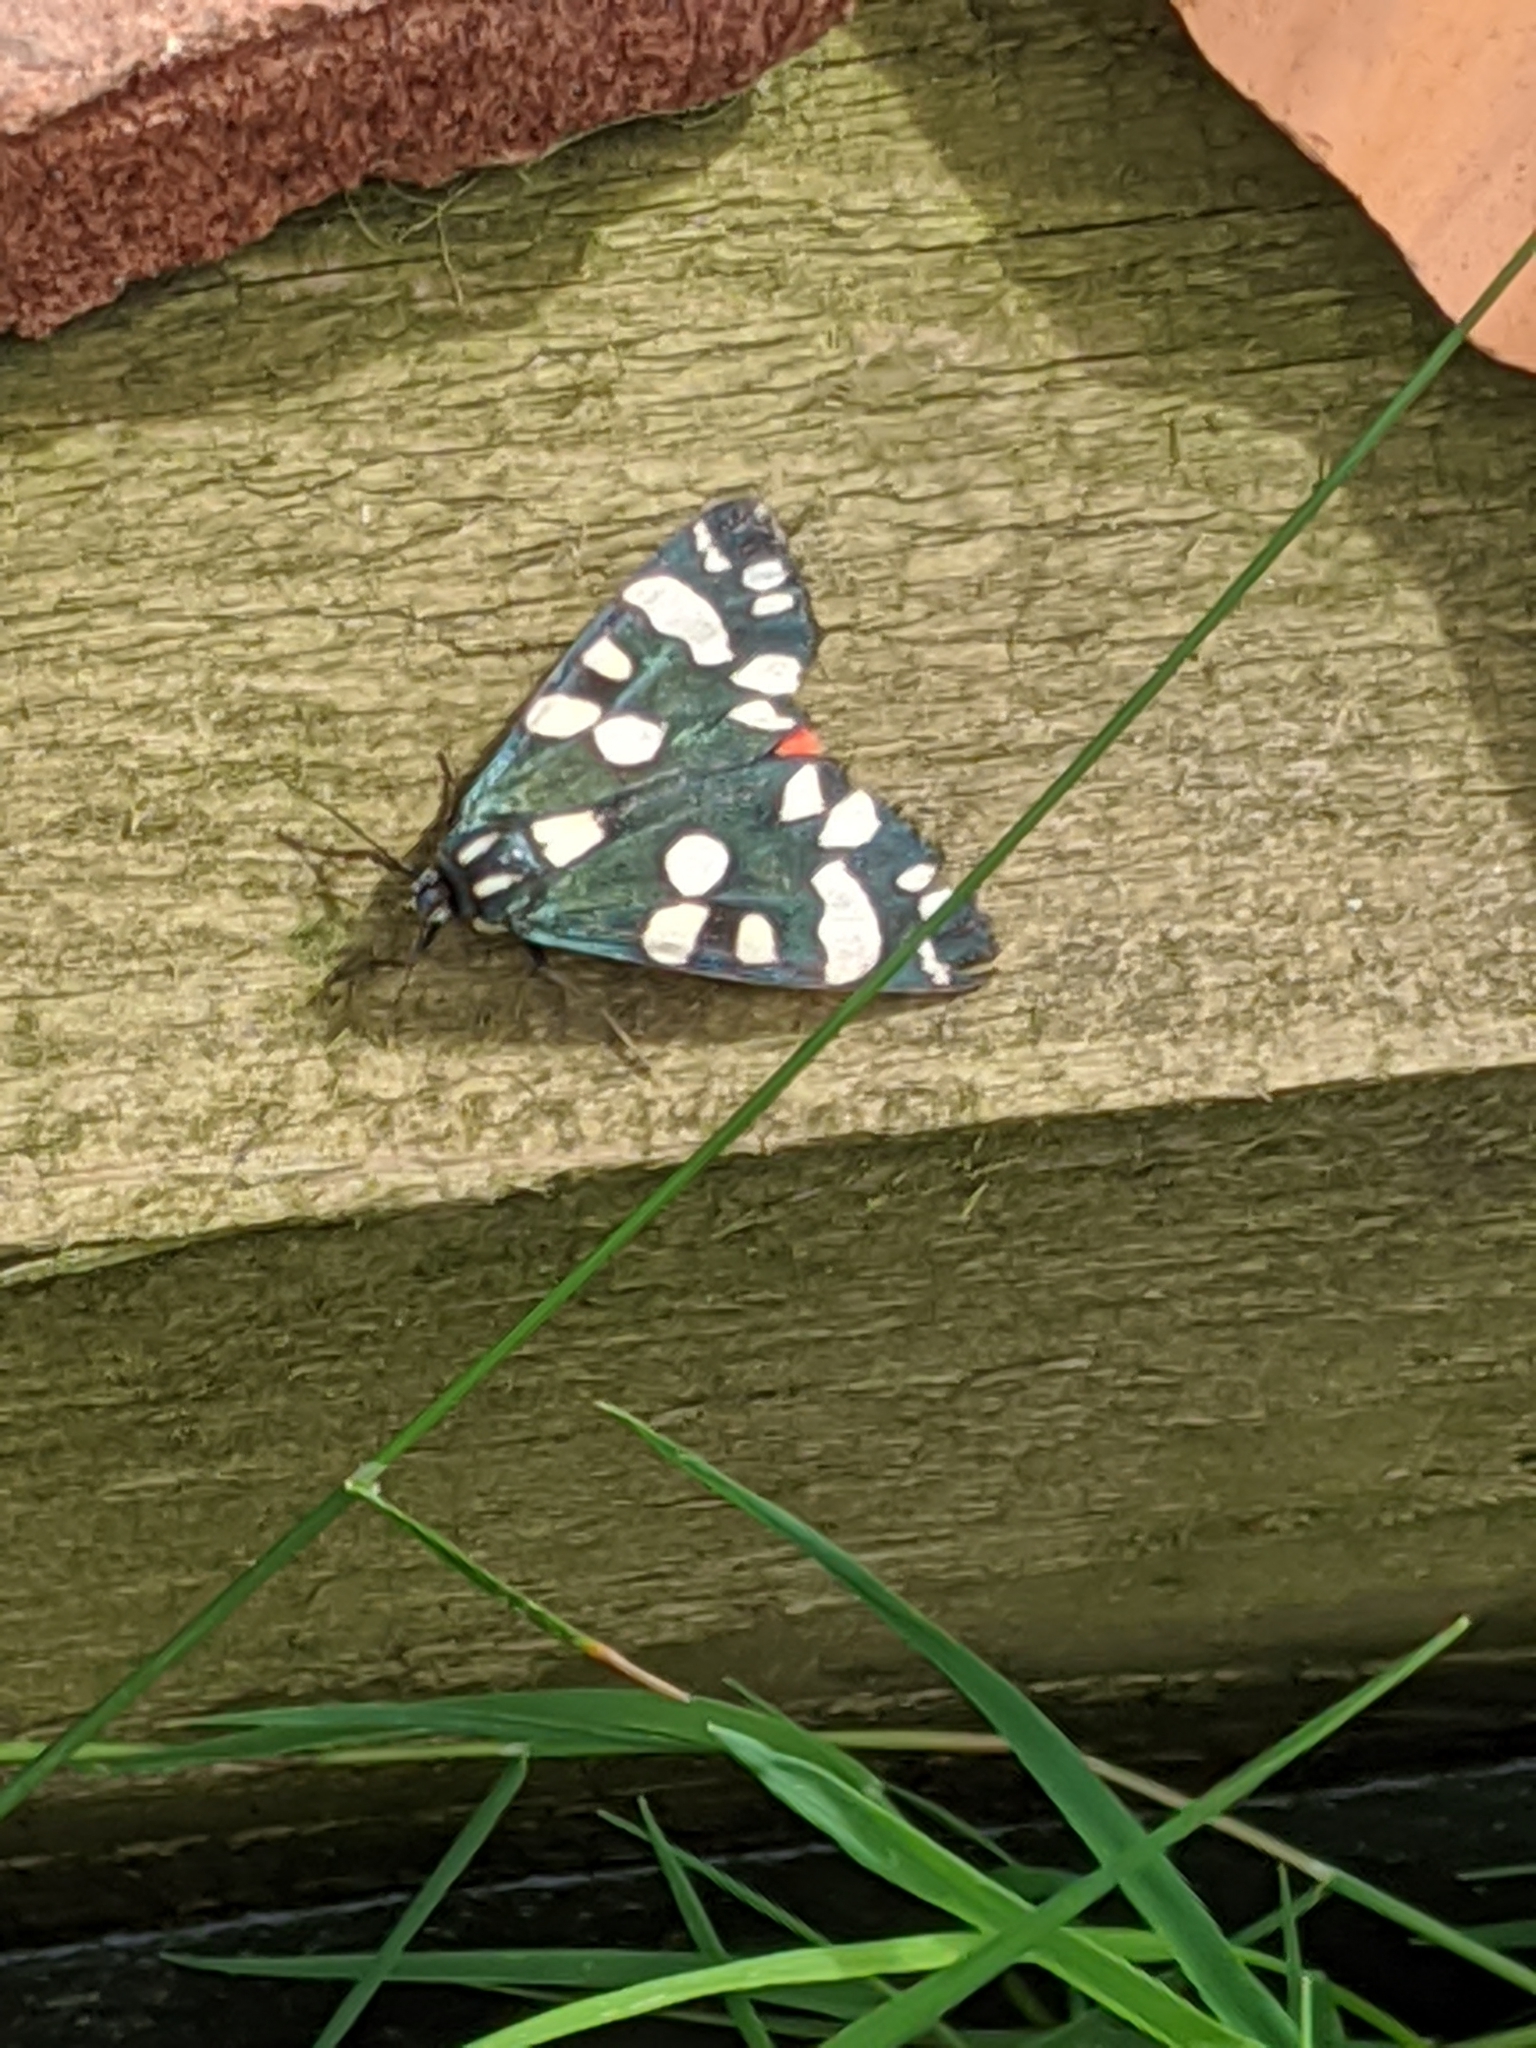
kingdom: Animalia
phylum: Arthropoda
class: Insecta
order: Lepidoptera
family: Erebidae
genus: Callimorpha
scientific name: Callimorpha dominula
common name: Scarlet tiger
